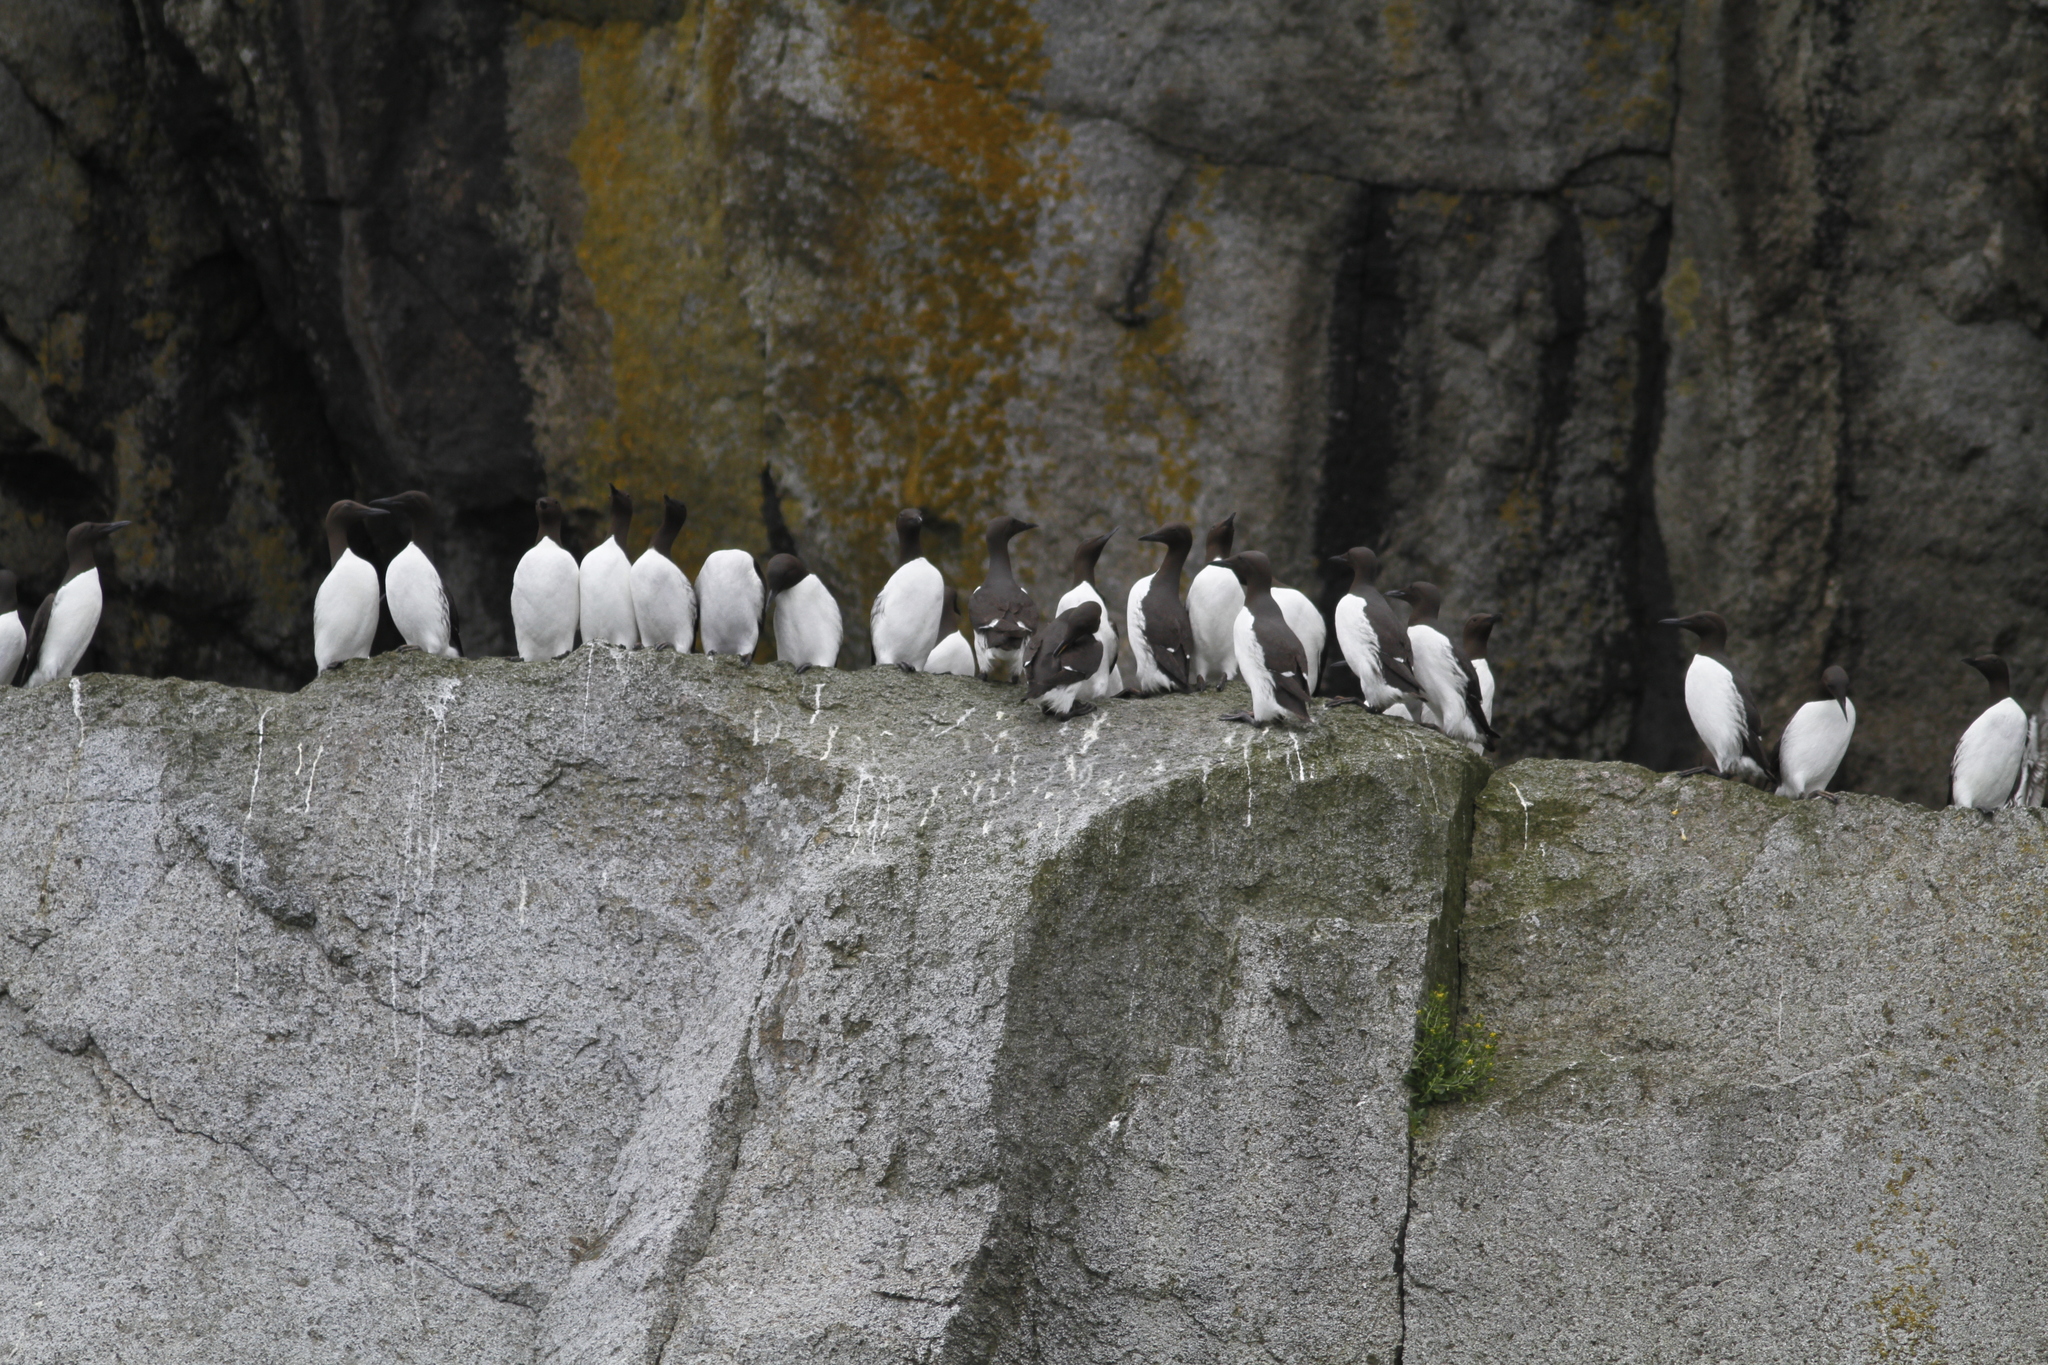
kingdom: Animalia
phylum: Chordata
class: Aves
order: Charadriiformes
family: Alcidae
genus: Uria
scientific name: Uria aalge
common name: Common murre
